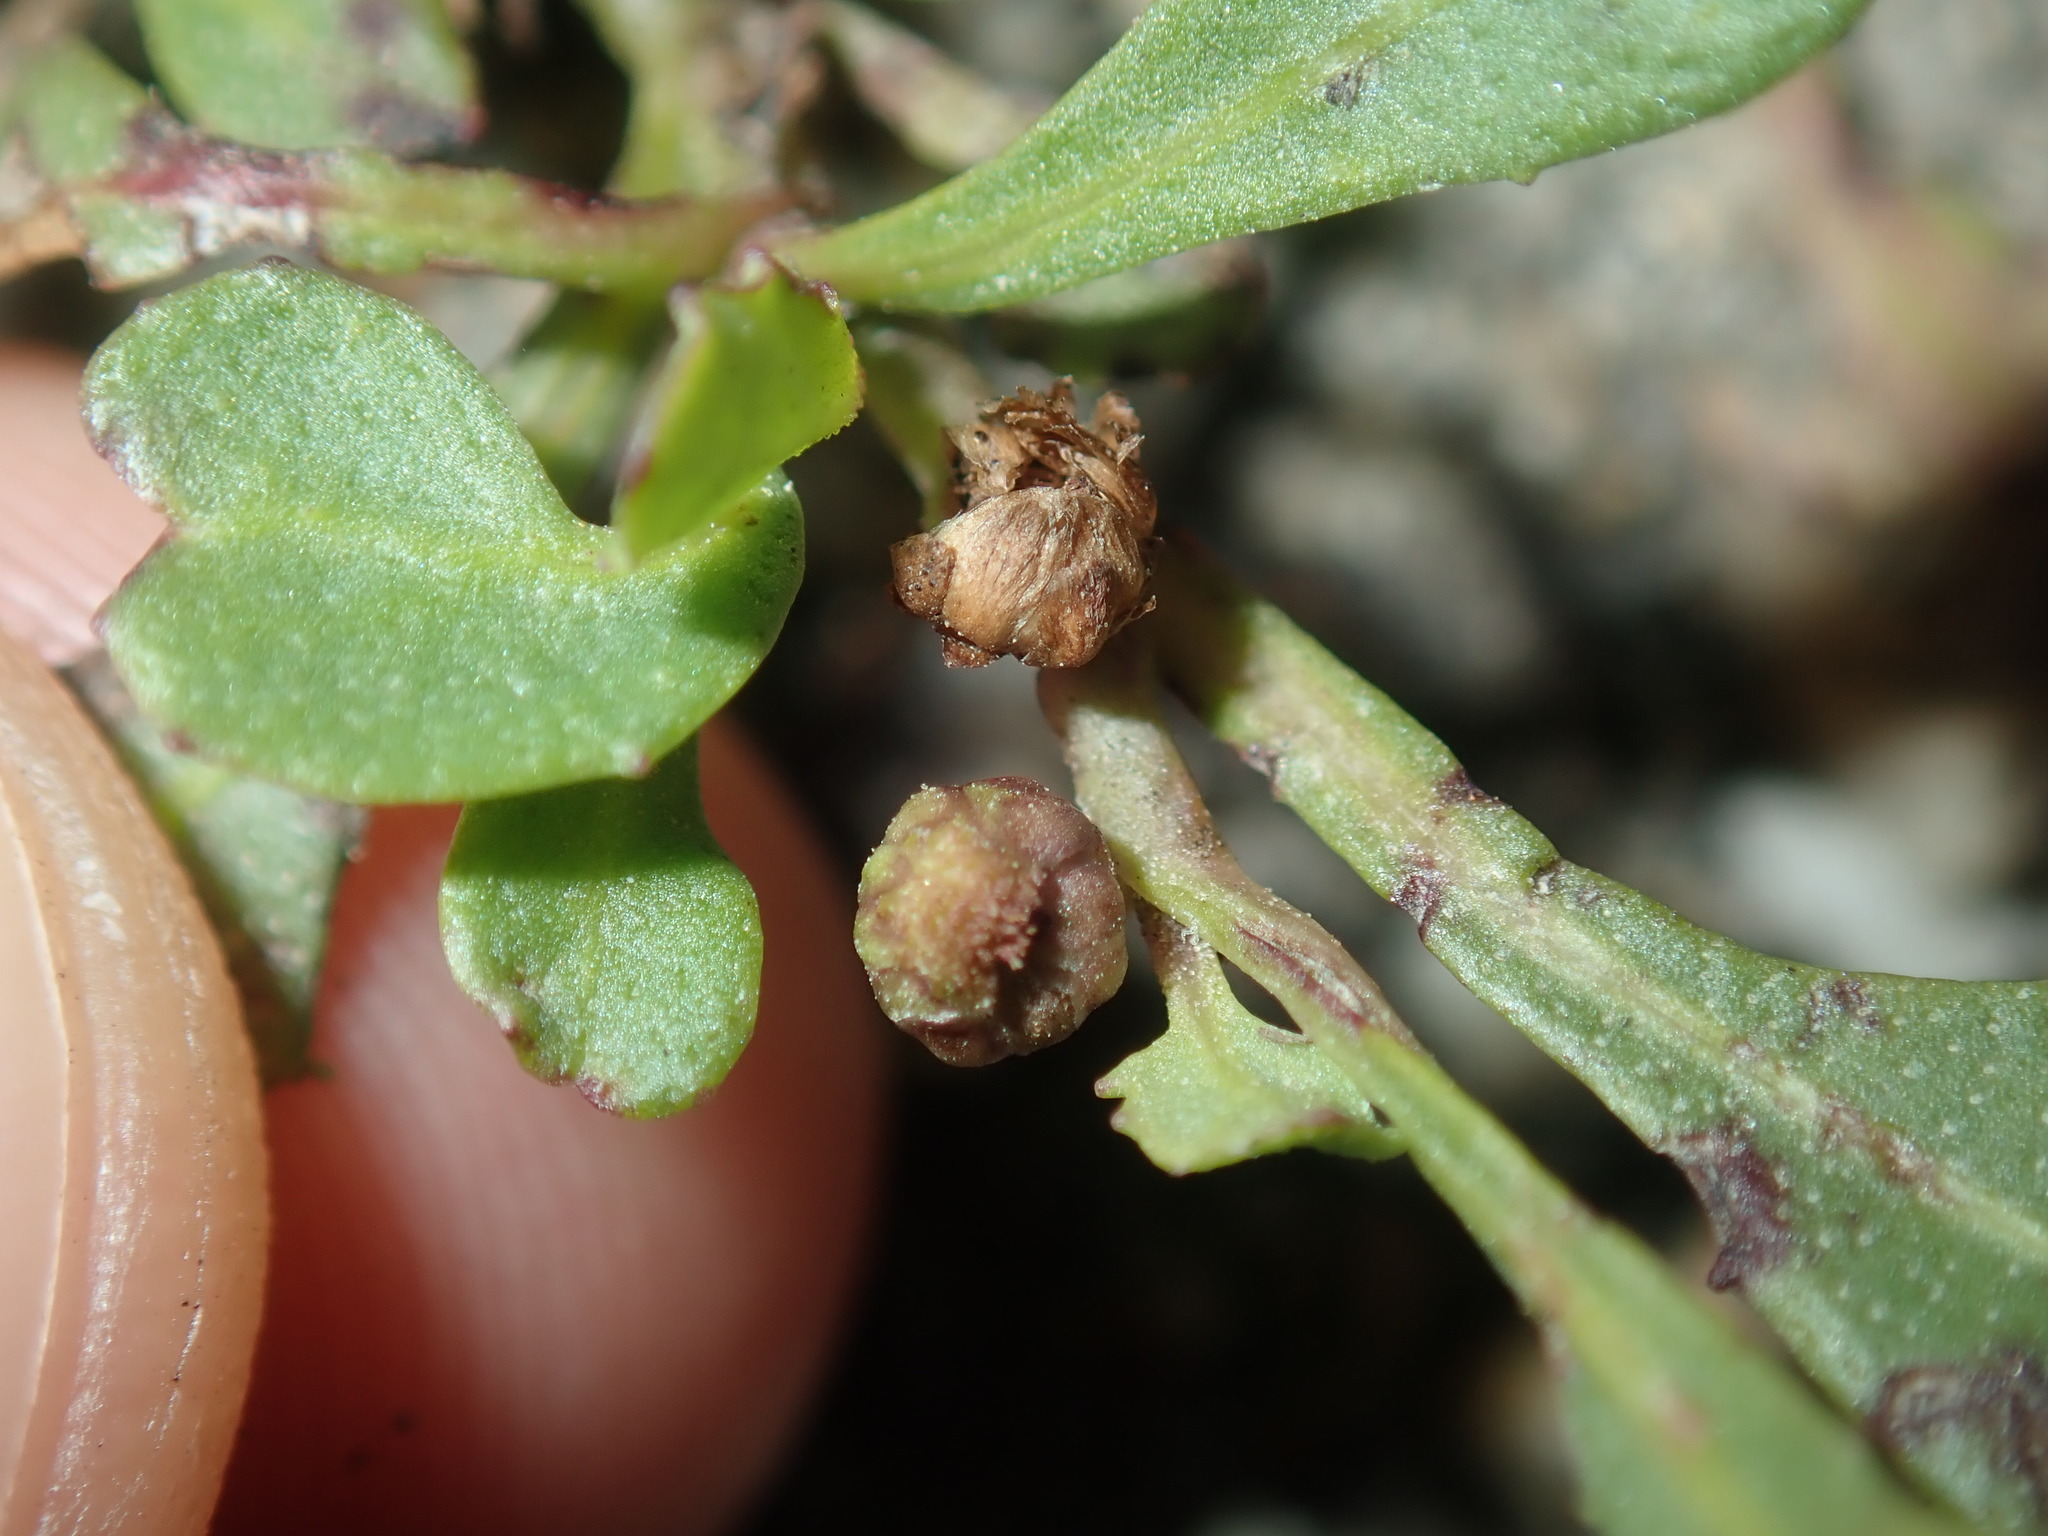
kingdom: Plantae
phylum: Tracheophyta
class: Magnoliopsida
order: Asterales
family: Asteraceae
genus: Sphaeromorphaea
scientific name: Sphaeromorphaea australis
